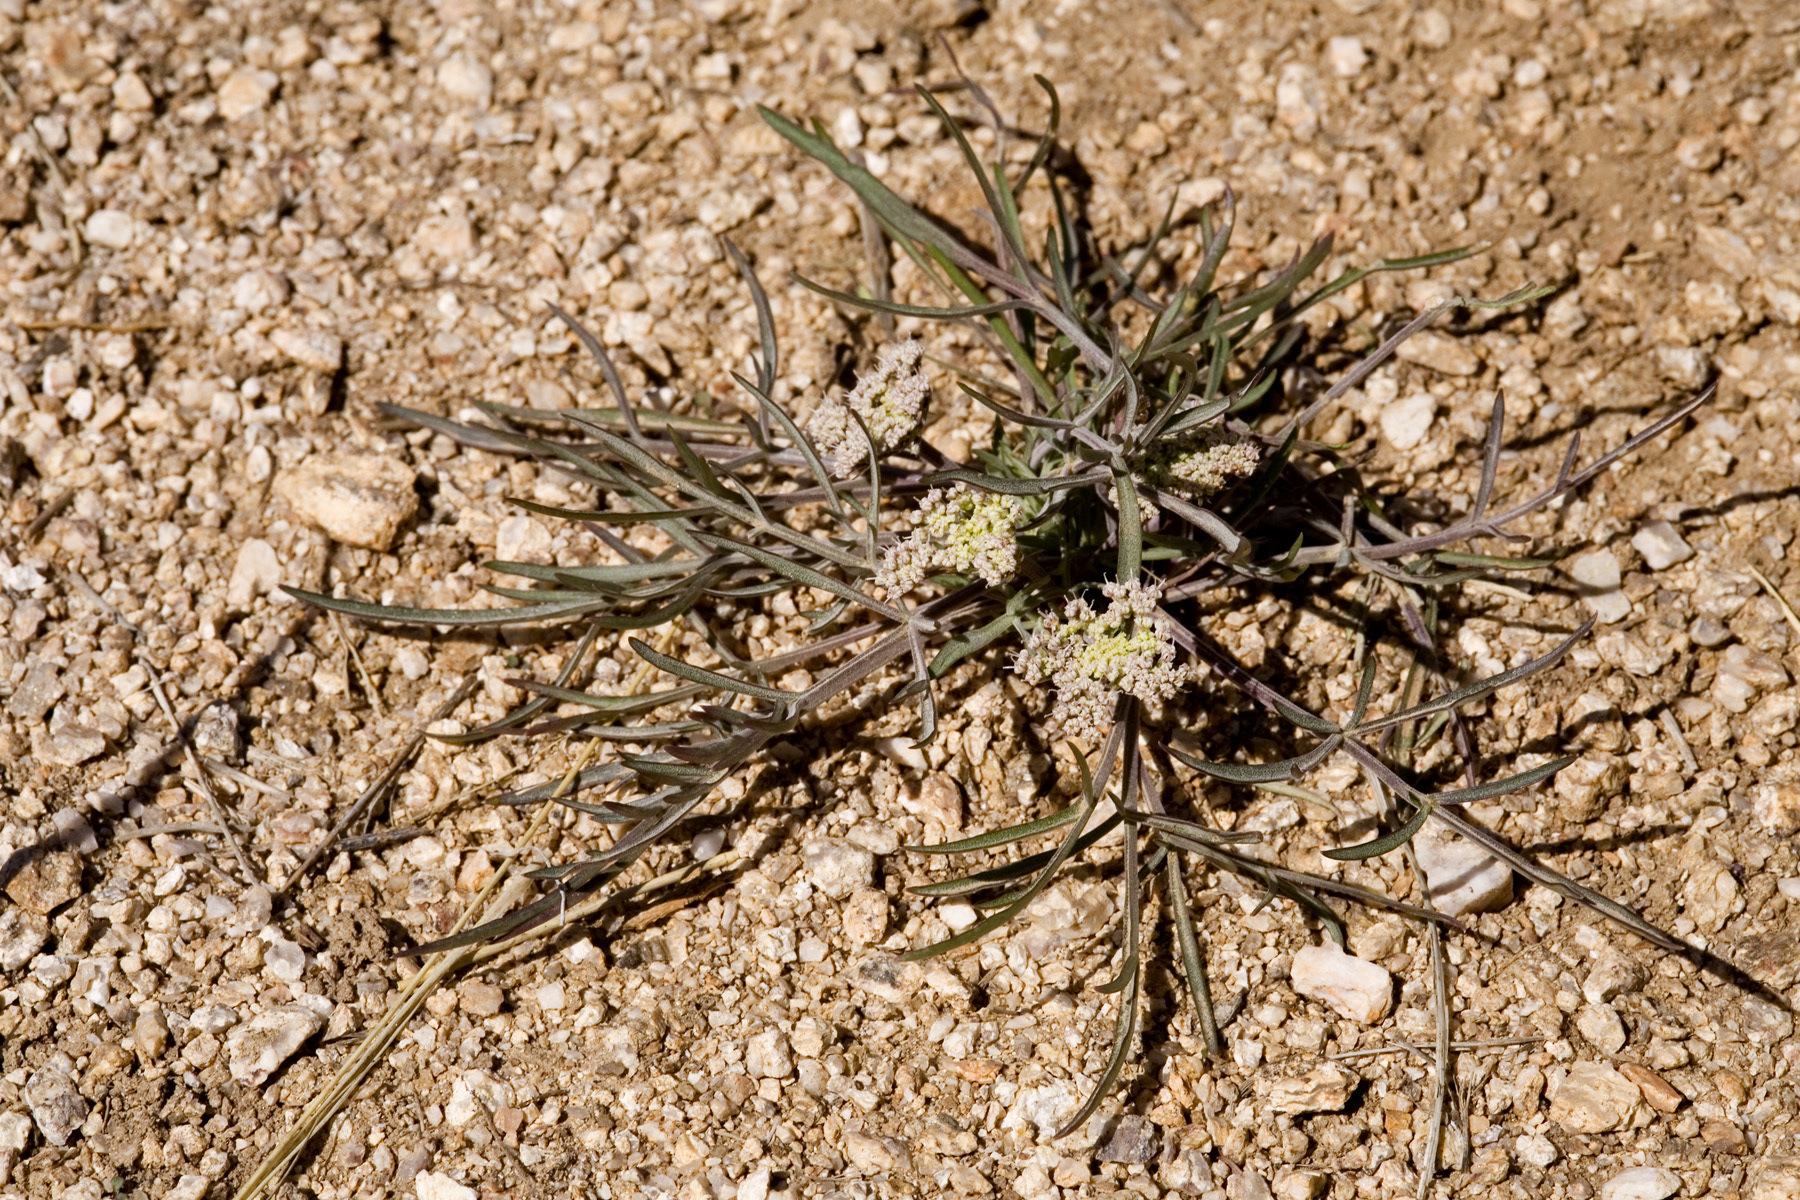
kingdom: Plantae
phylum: Tracheophyta
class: Magnoliopsida
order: Apiales
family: Apiaceae
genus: Lomatium
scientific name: Lomatium nevadense
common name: Nevada lomatium
